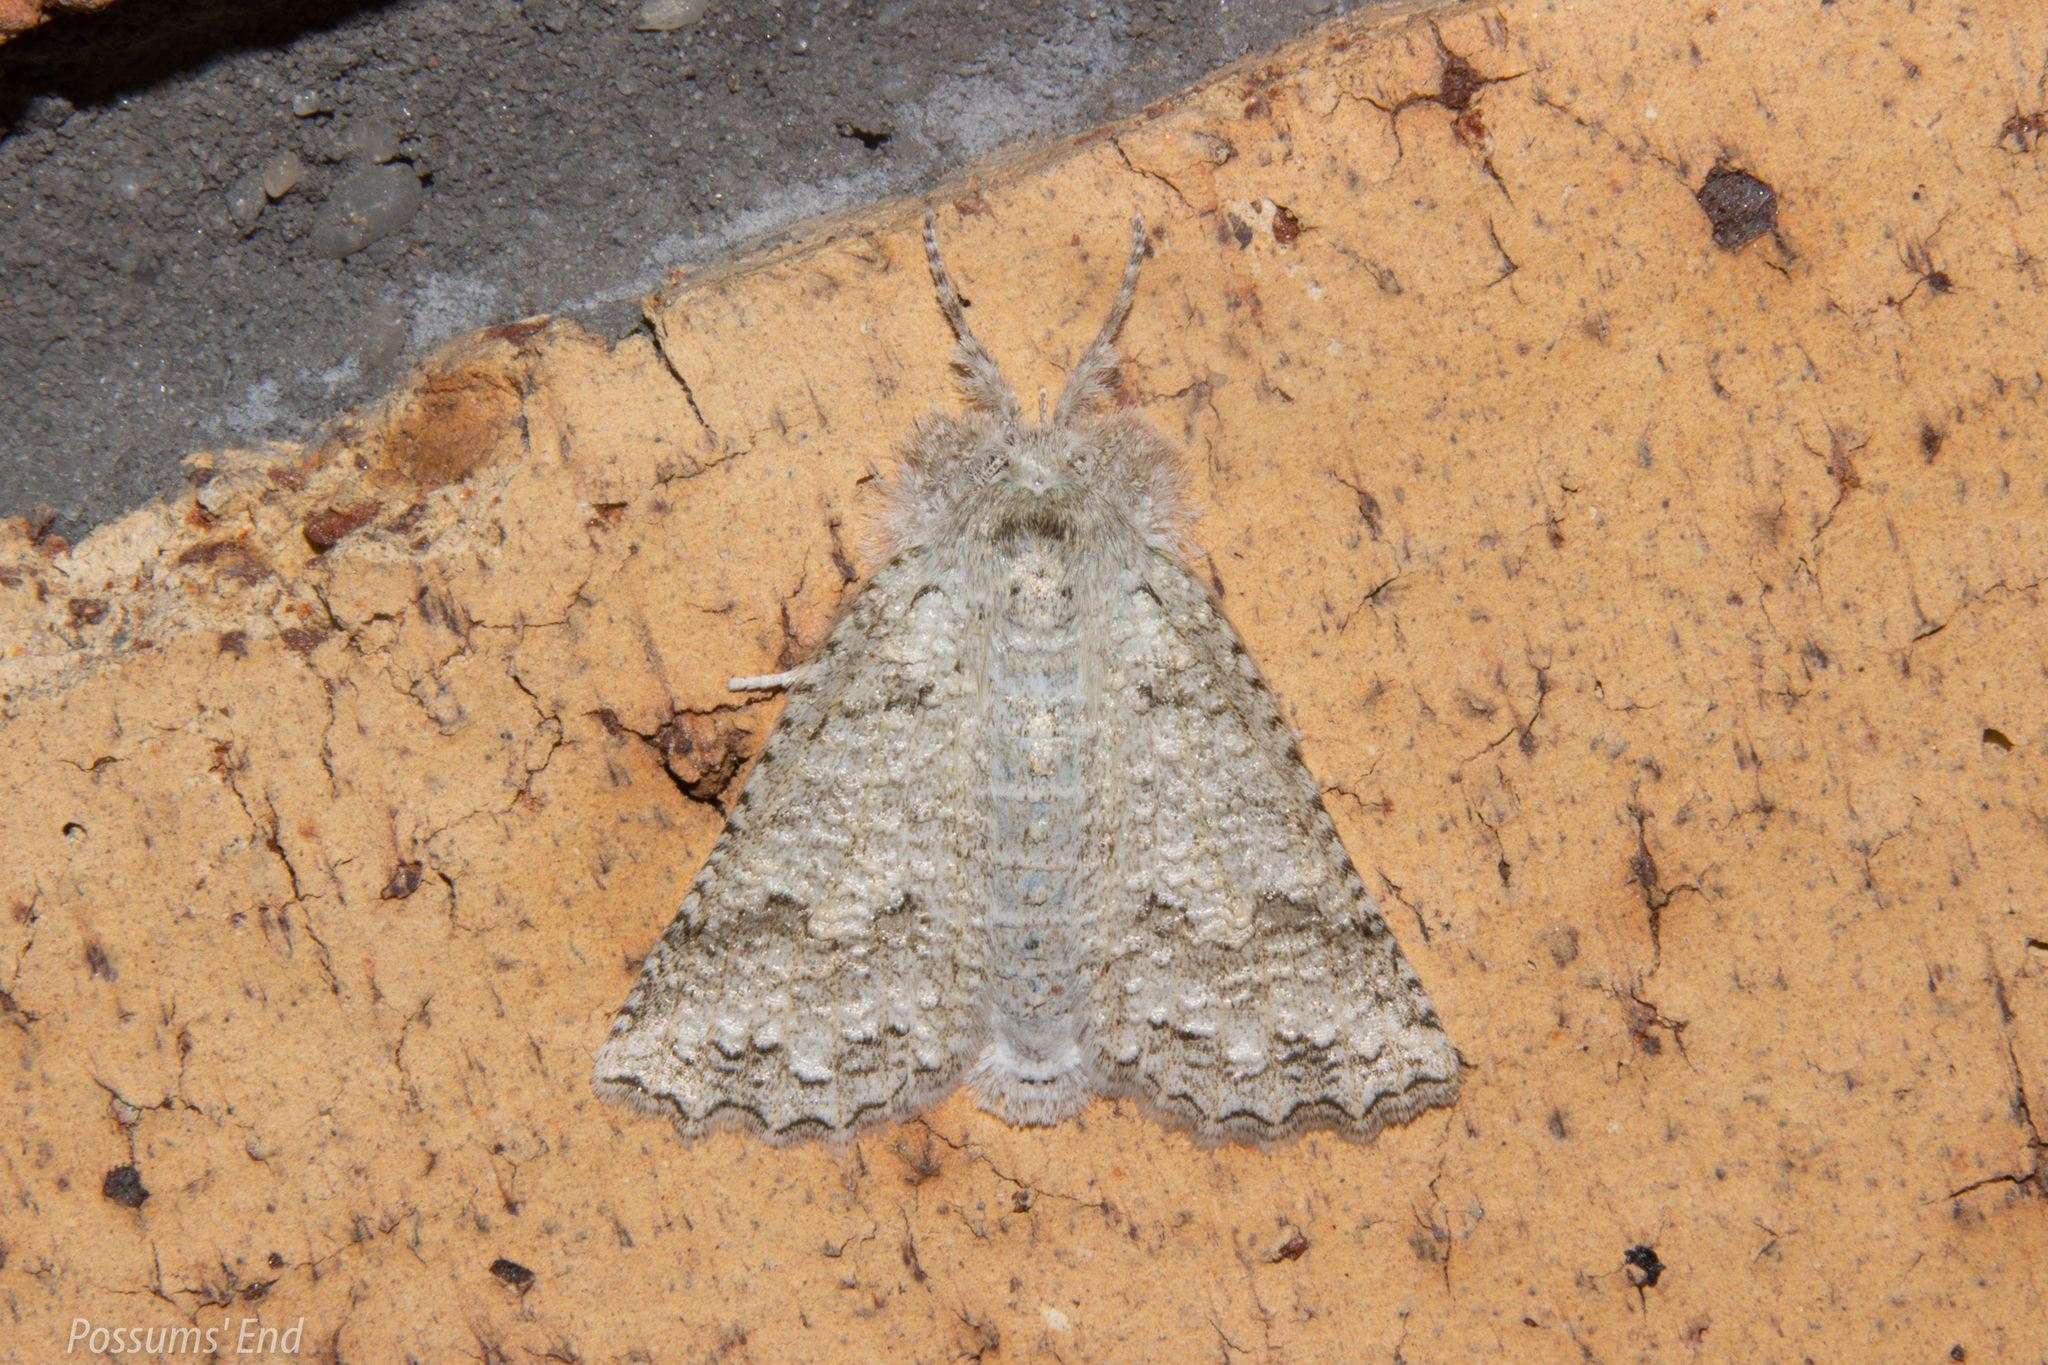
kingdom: Animalia
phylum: Arthropoda
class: Insecta
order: Lepidoptera
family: Geometridae
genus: Declana
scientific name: Declana niveata
